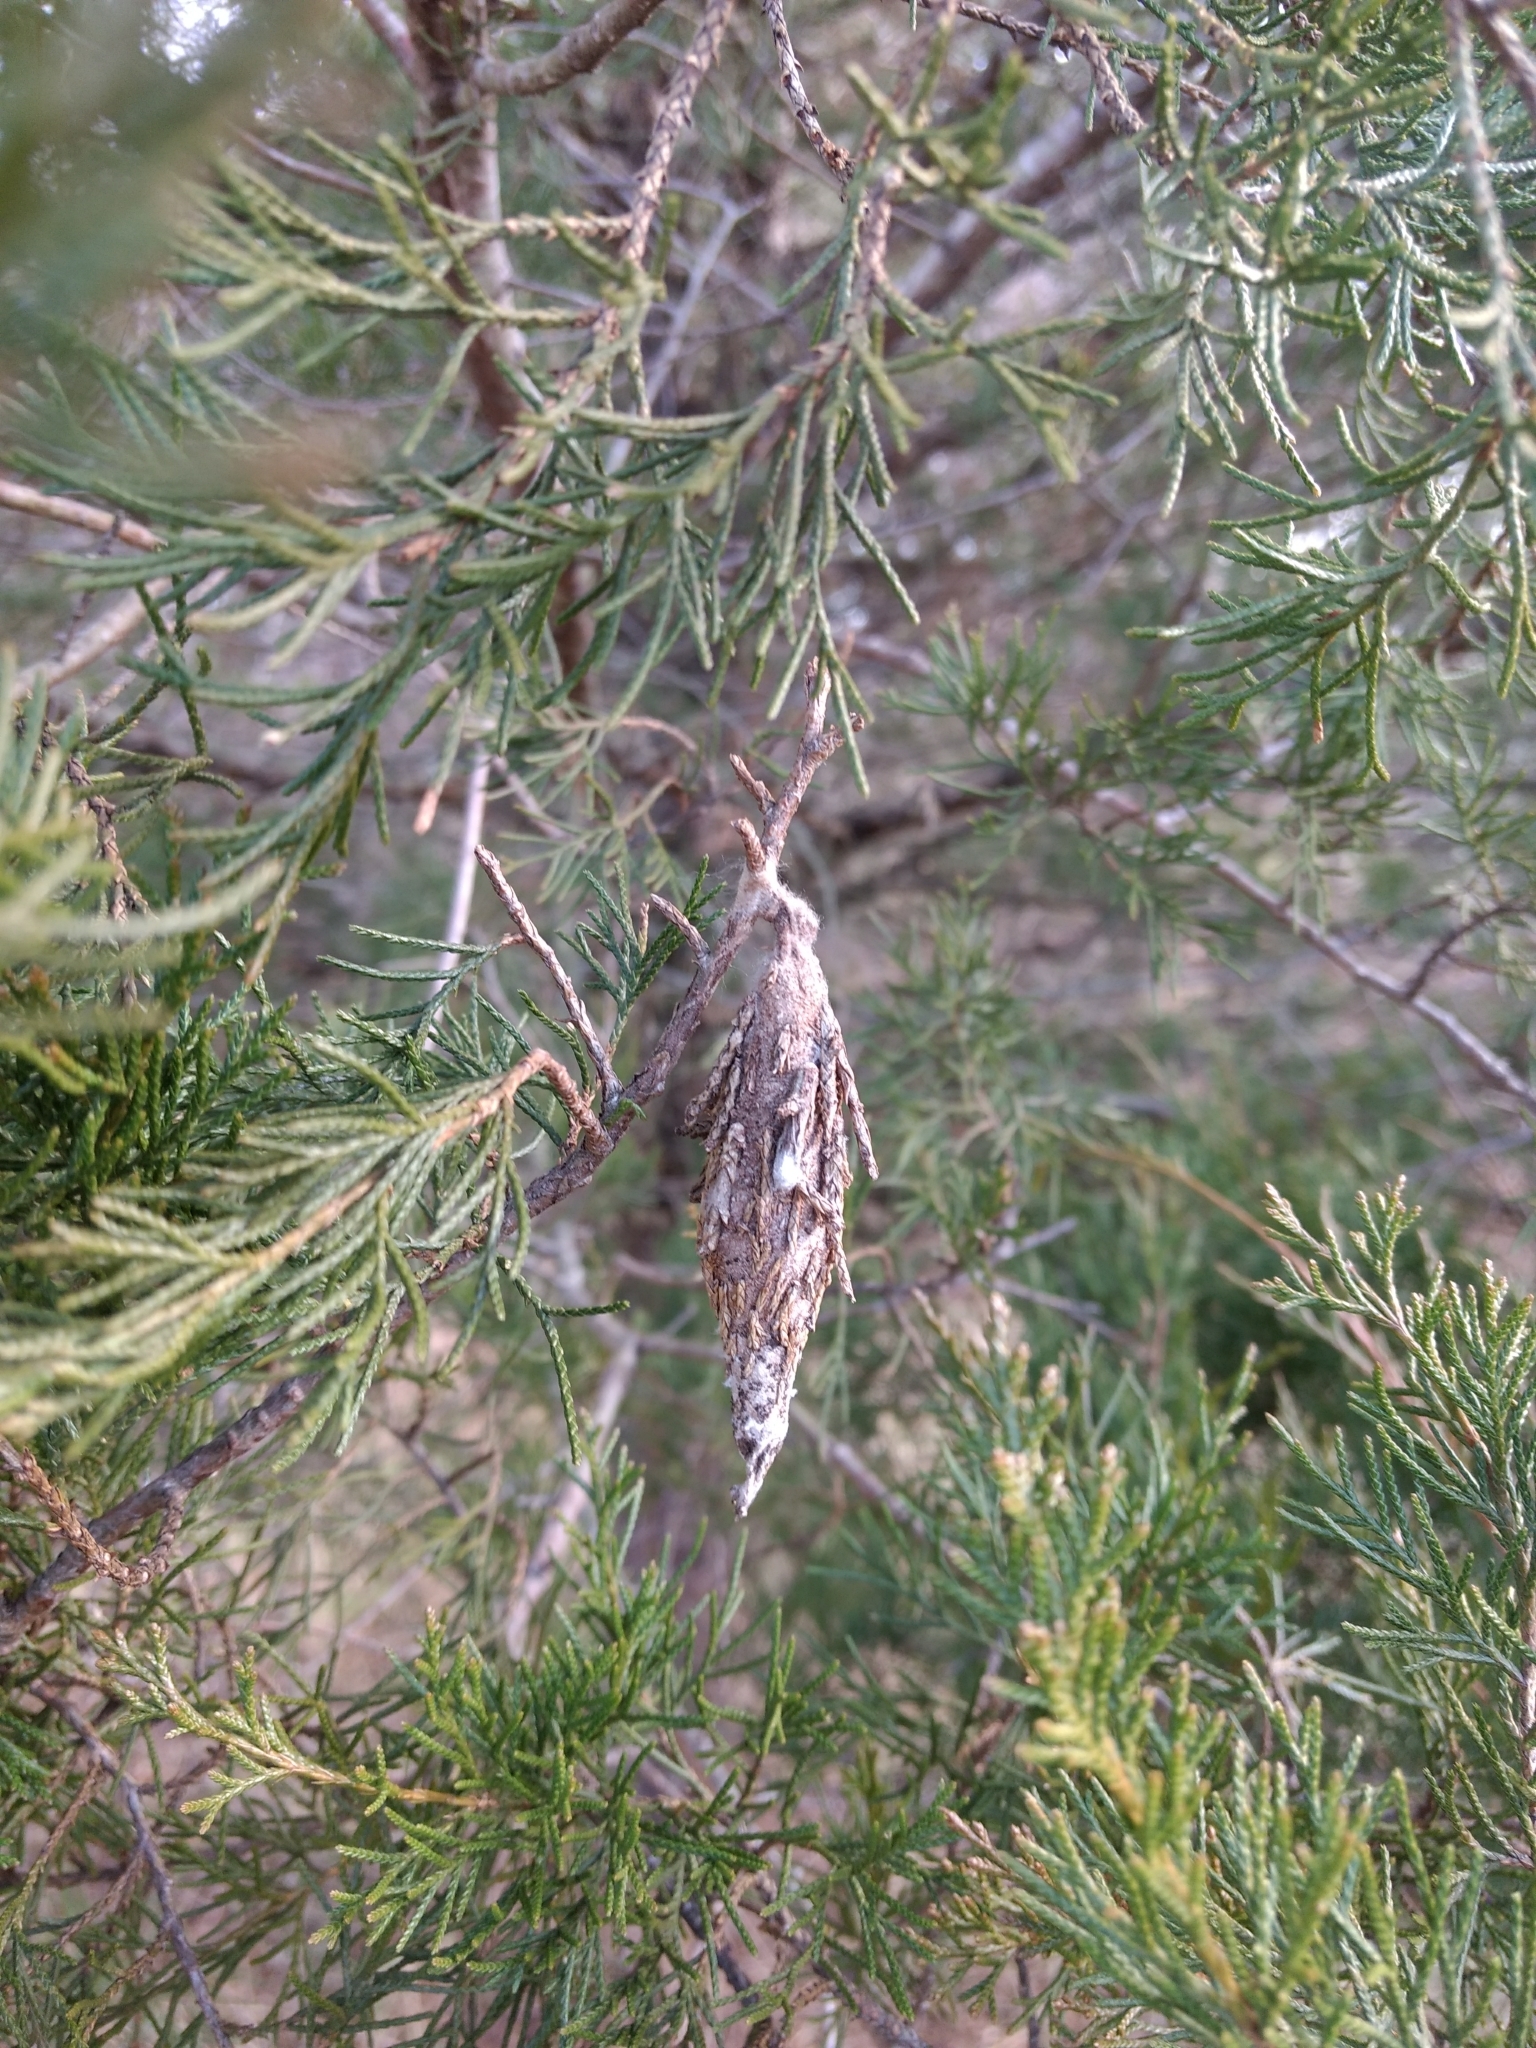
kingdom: Animalia
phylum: Arthropoda
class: Insecta
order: Lepidoptera
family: Psychidae
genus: Thyridopteryx
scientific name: Thyridopteryx ephemeraeformis
